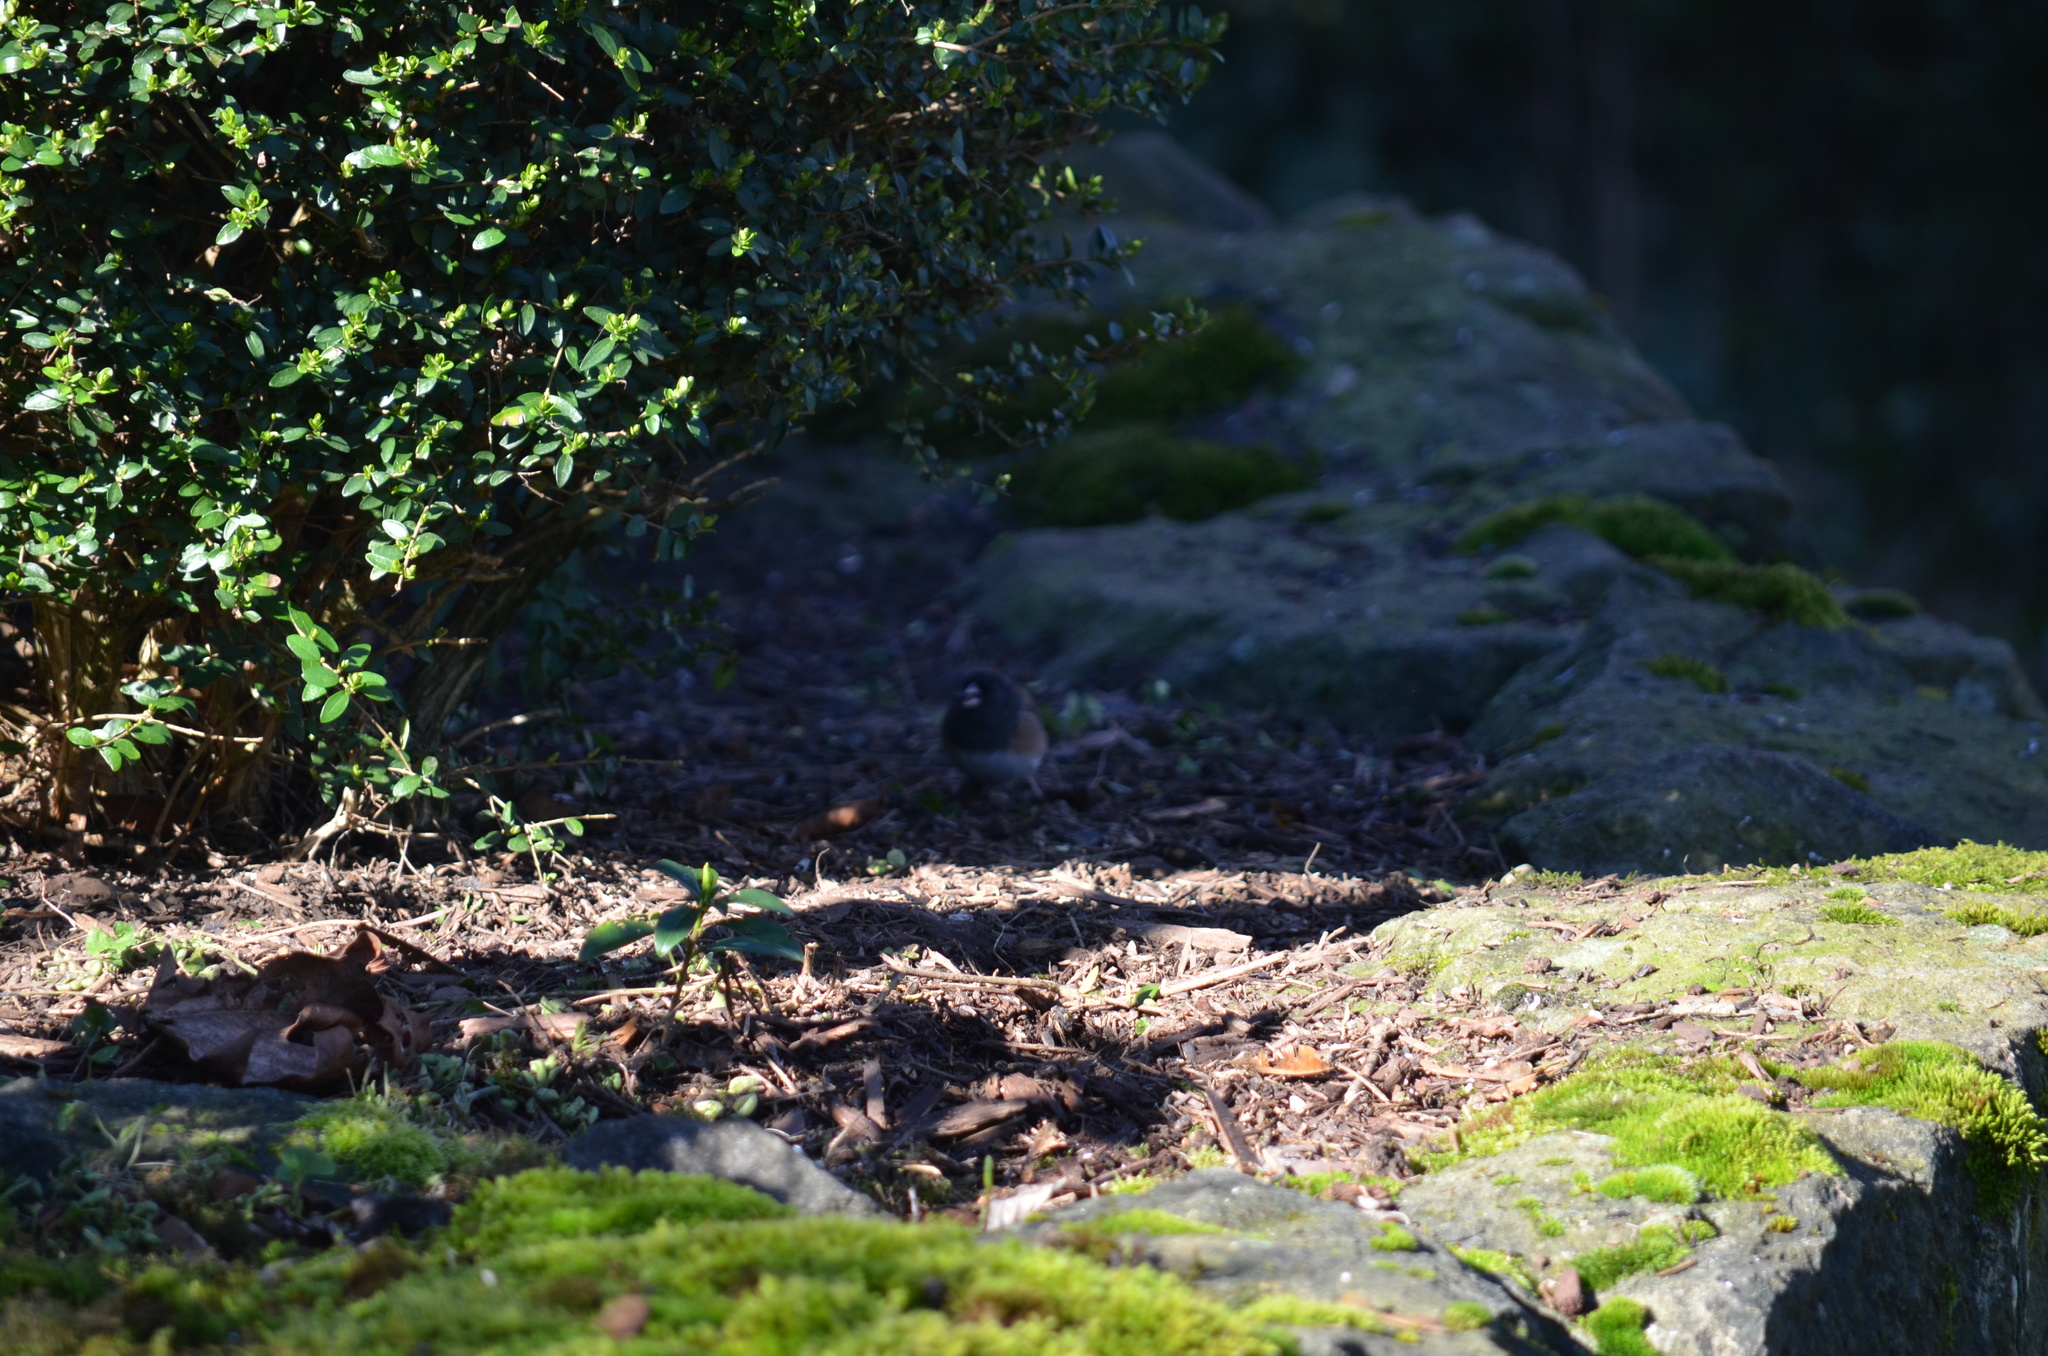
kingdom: Animalia
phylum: Chordata
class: Aves
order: Passeriformes
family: Passerellidae
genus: Junco
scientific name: Junco hyemalis
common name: Dark-eyed junco
